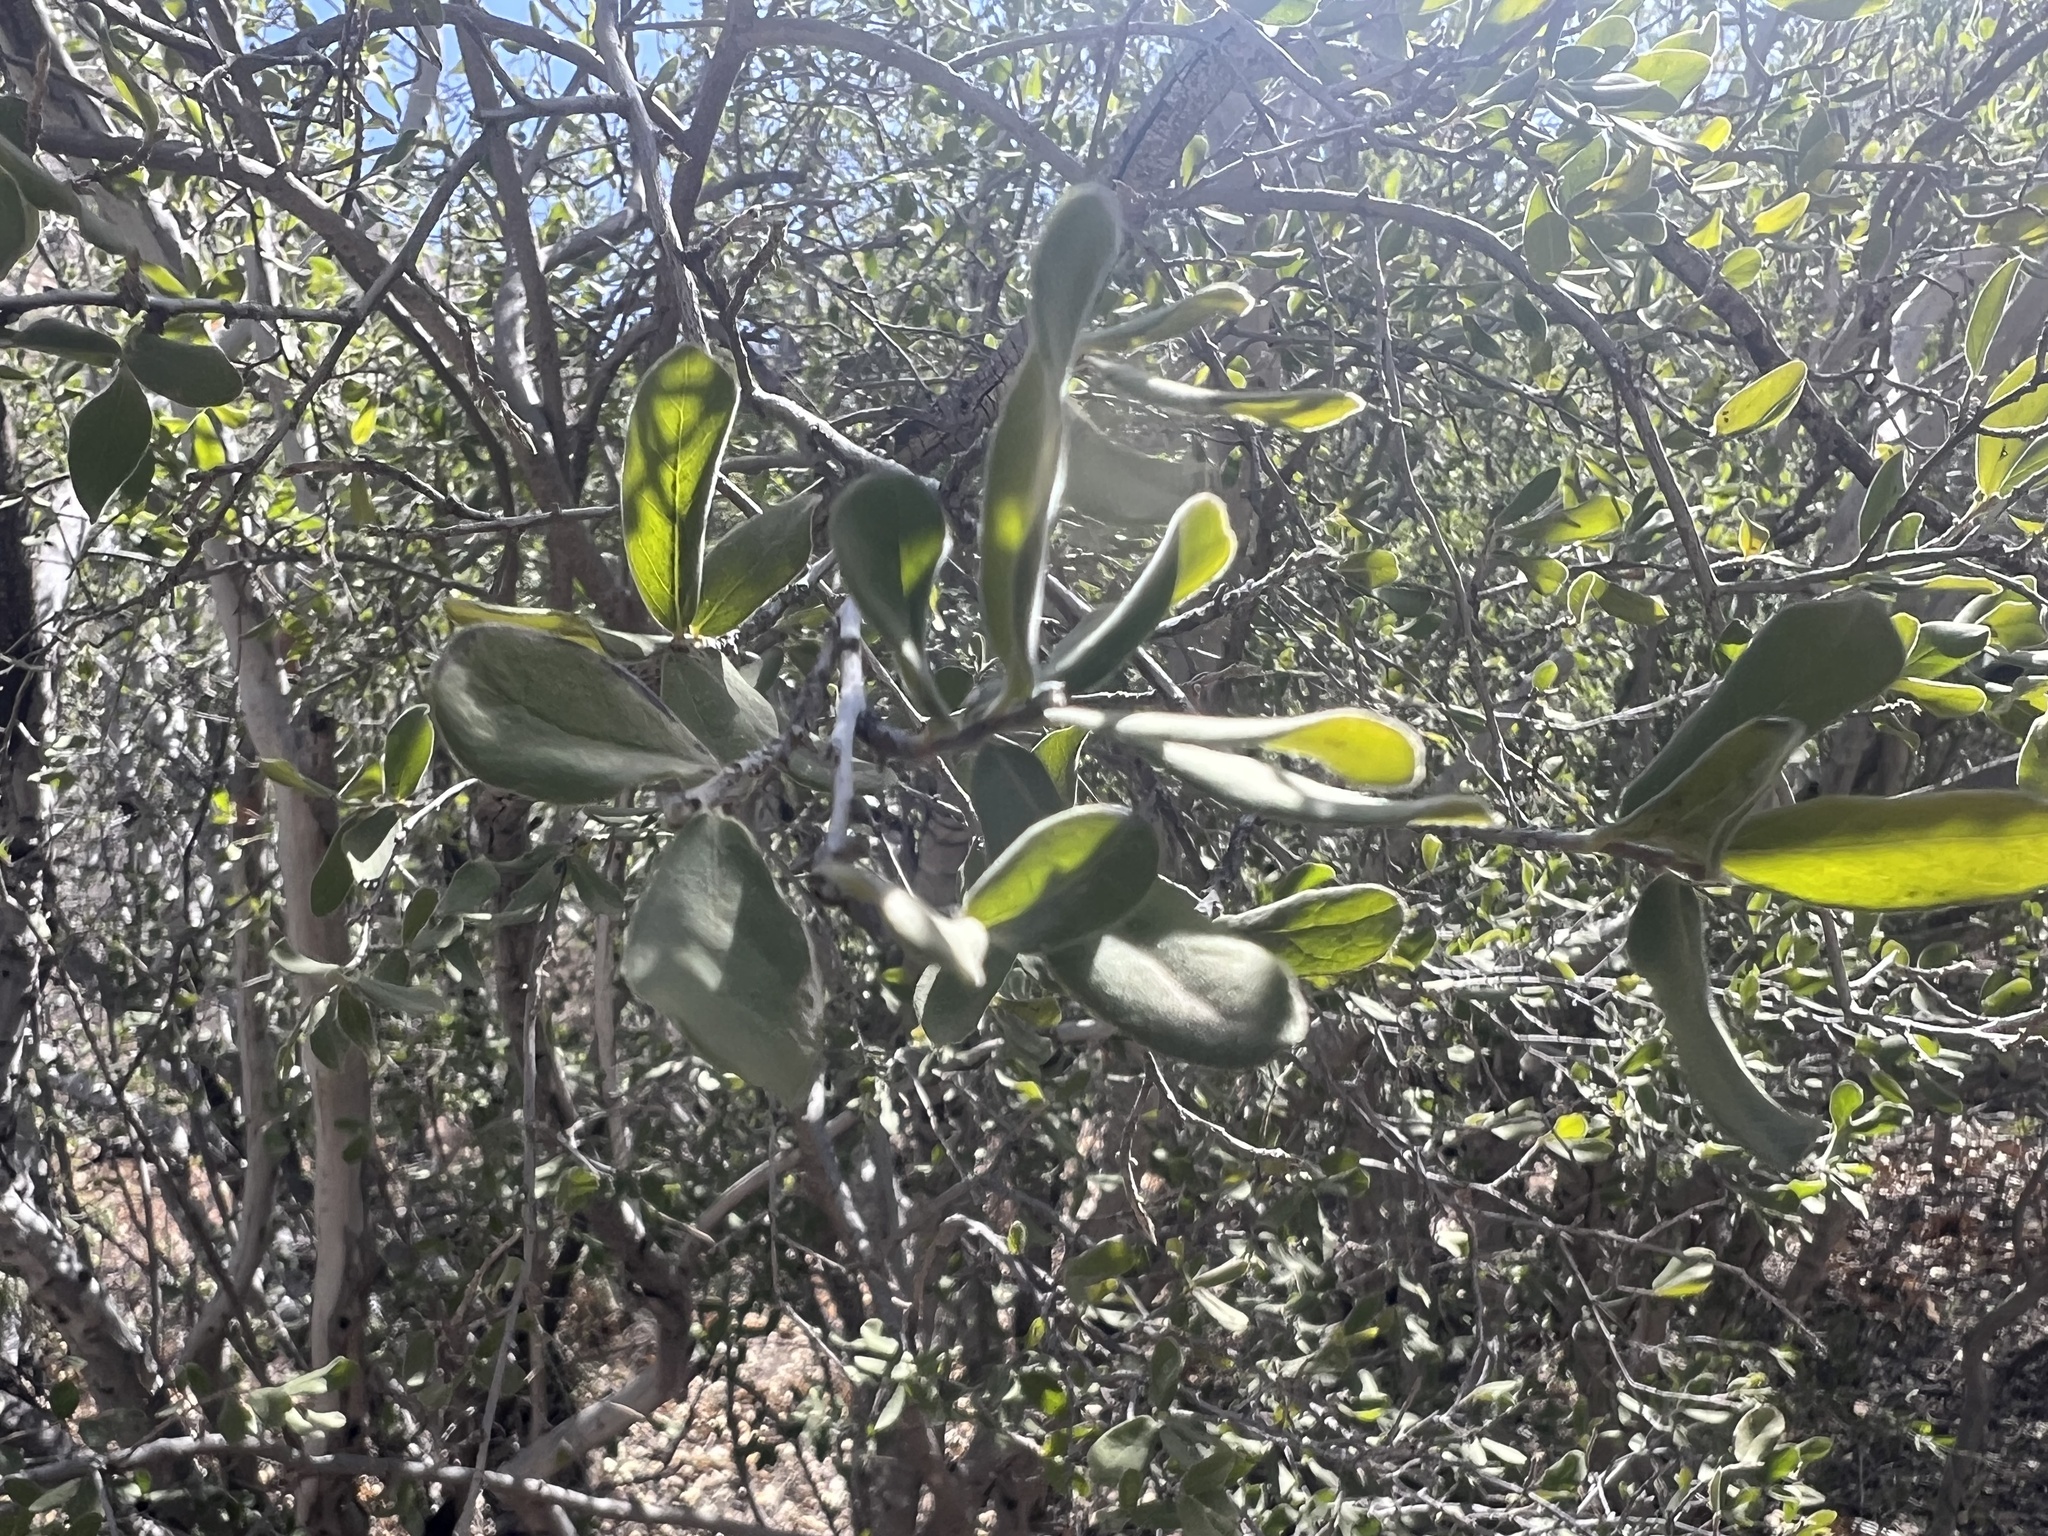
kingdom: Plantae
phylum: Tracheophyta
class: Magnoliopsida
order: Ericales
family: Ebenaceae
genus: Diospyros
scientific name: Diospyros texana
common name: Texas persimmon
